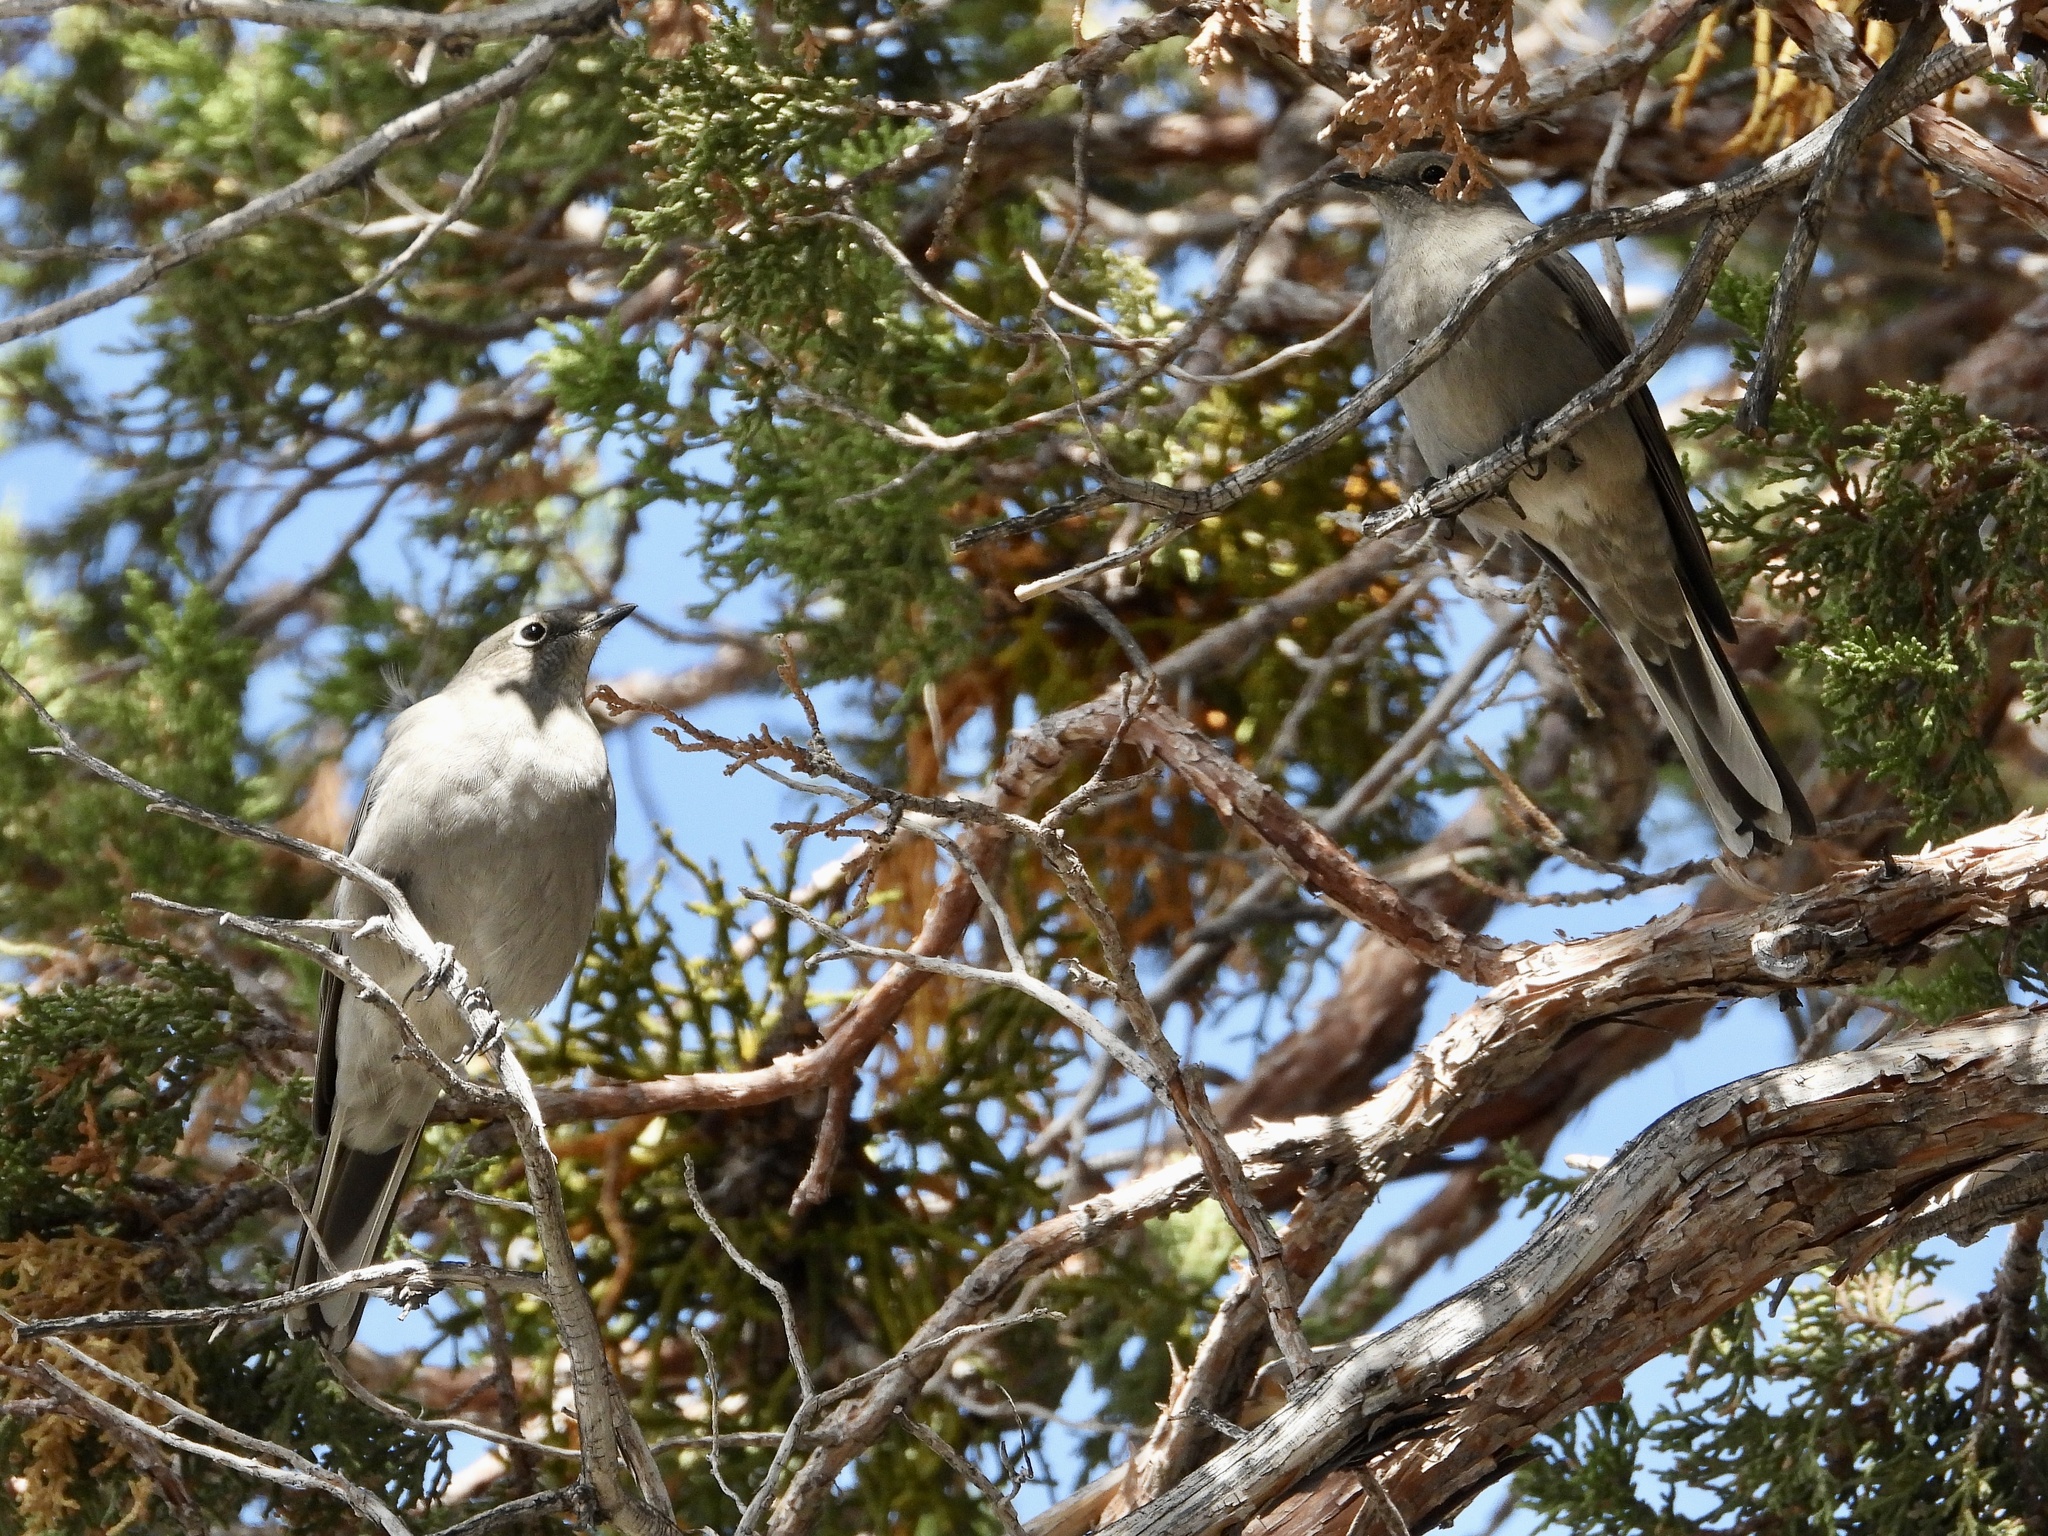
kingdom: Animalia
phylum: Chordata
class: Aves
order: Passeriformes
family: Turdidae
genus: Myadestes
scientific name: Myadestes townsendi
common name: Townsend's solitaire
